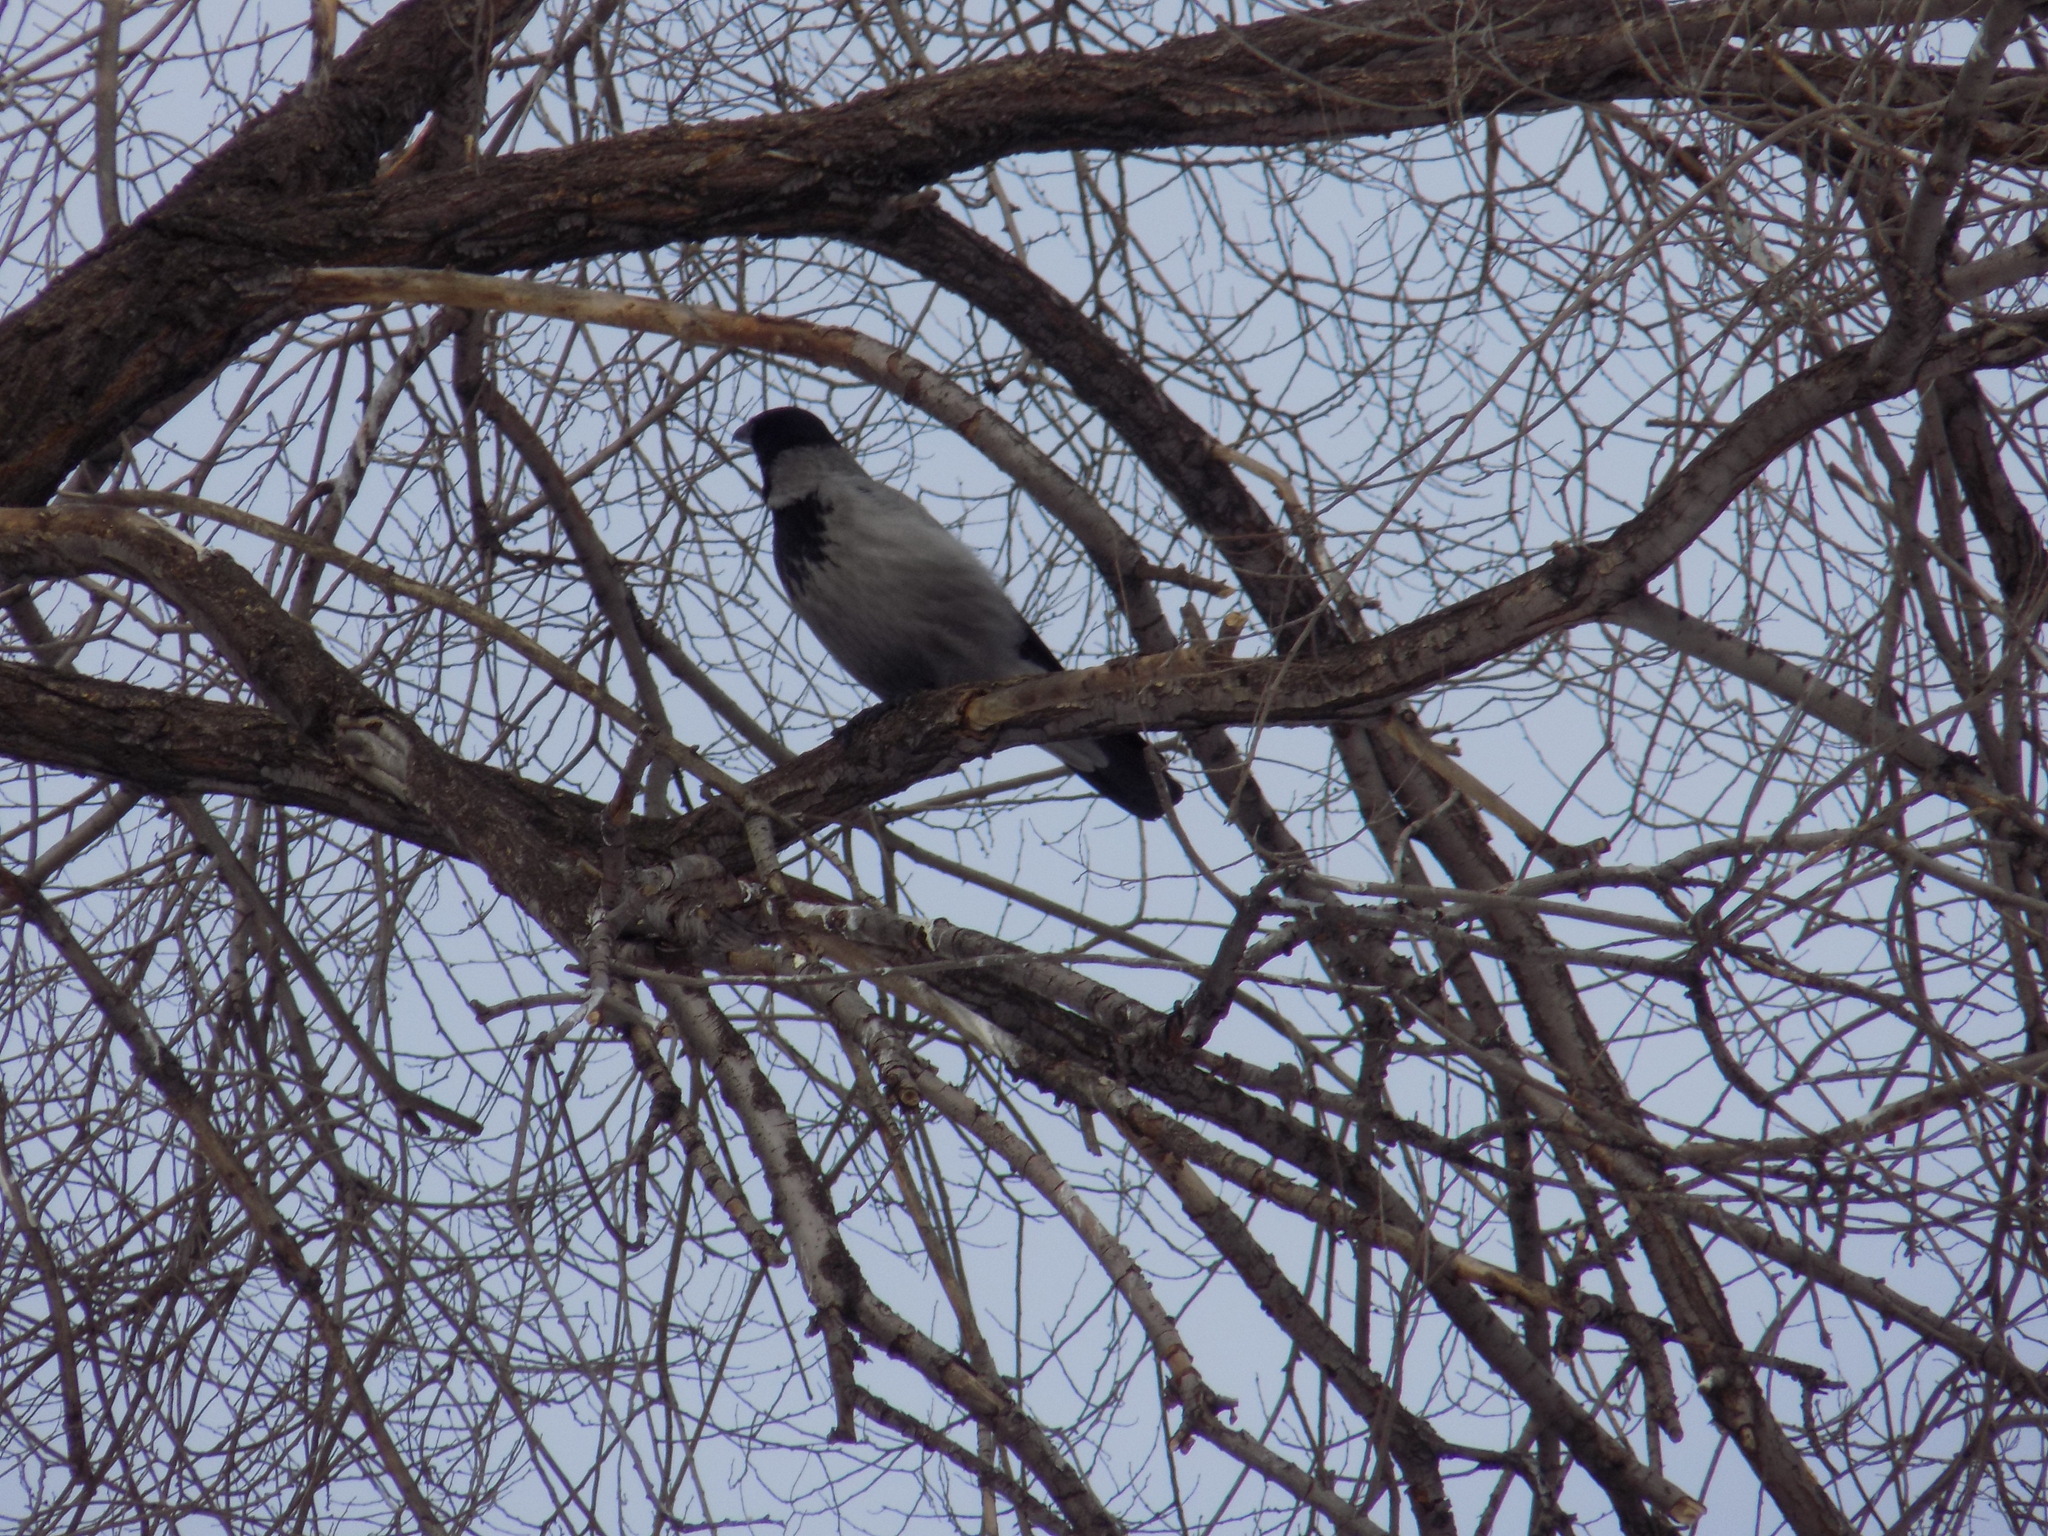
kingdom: Animalia
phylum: Chordata
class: Aves
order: Passeriformes
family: Corvidae
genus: Corvus
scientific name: Corvus cornix
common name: Hooded crow
